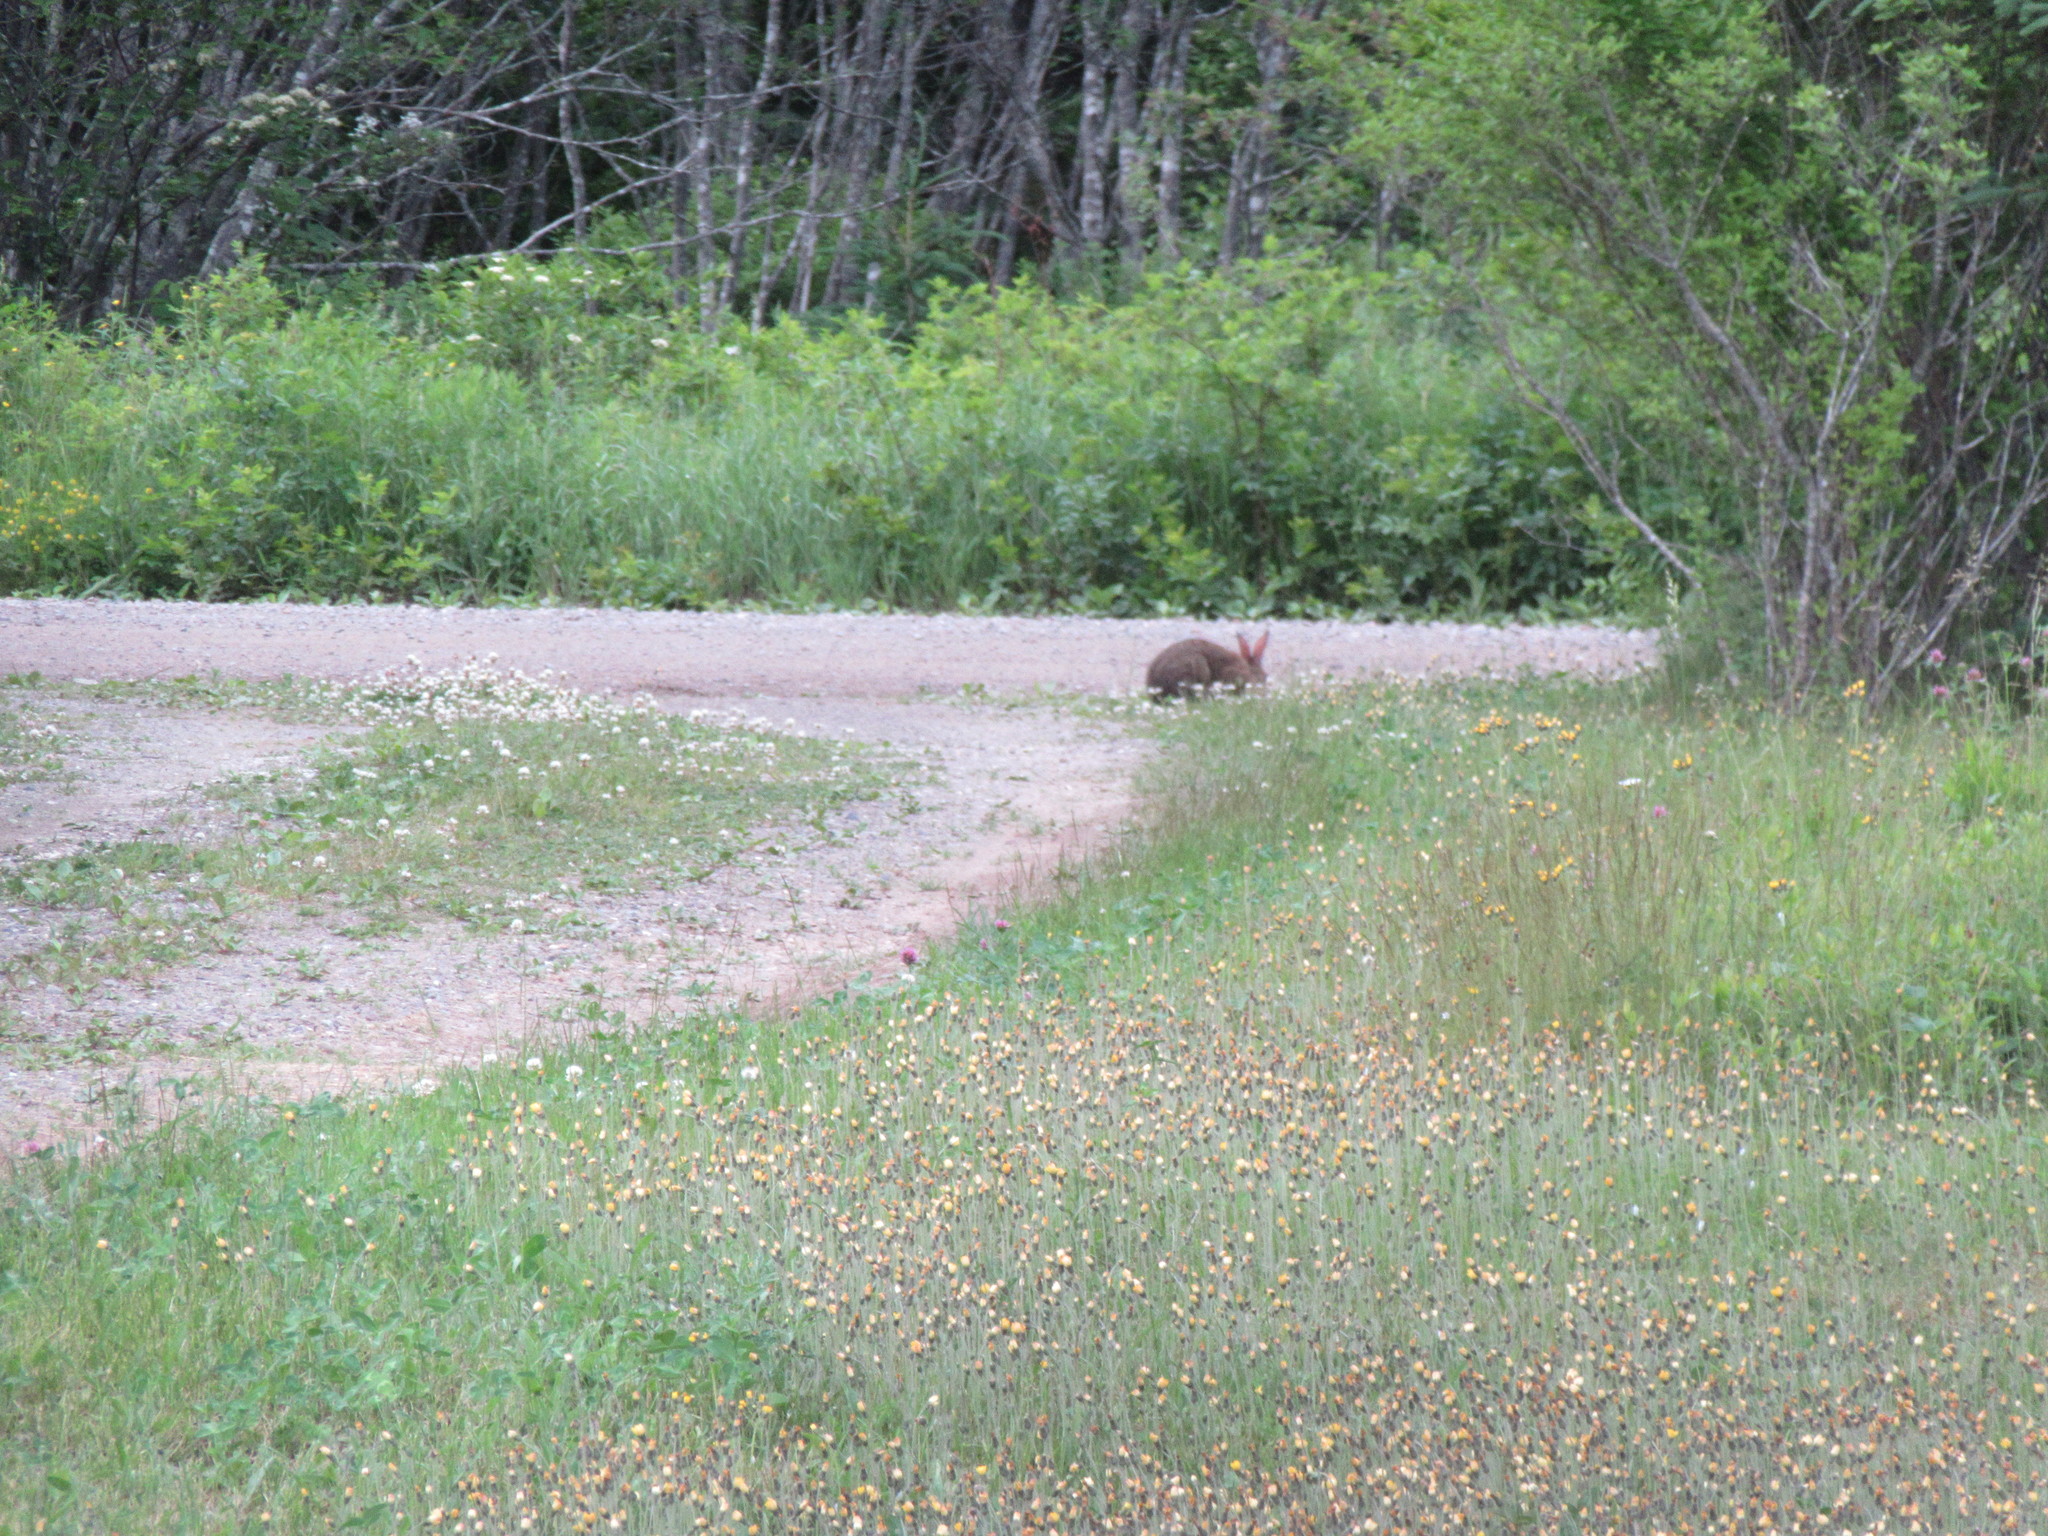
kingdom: Animalia
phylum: Chordata
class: Mammalia
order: Lagomorpha
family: Leporidae
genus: Lepus
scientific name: Lepus americanus
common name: Snowshoe hare
